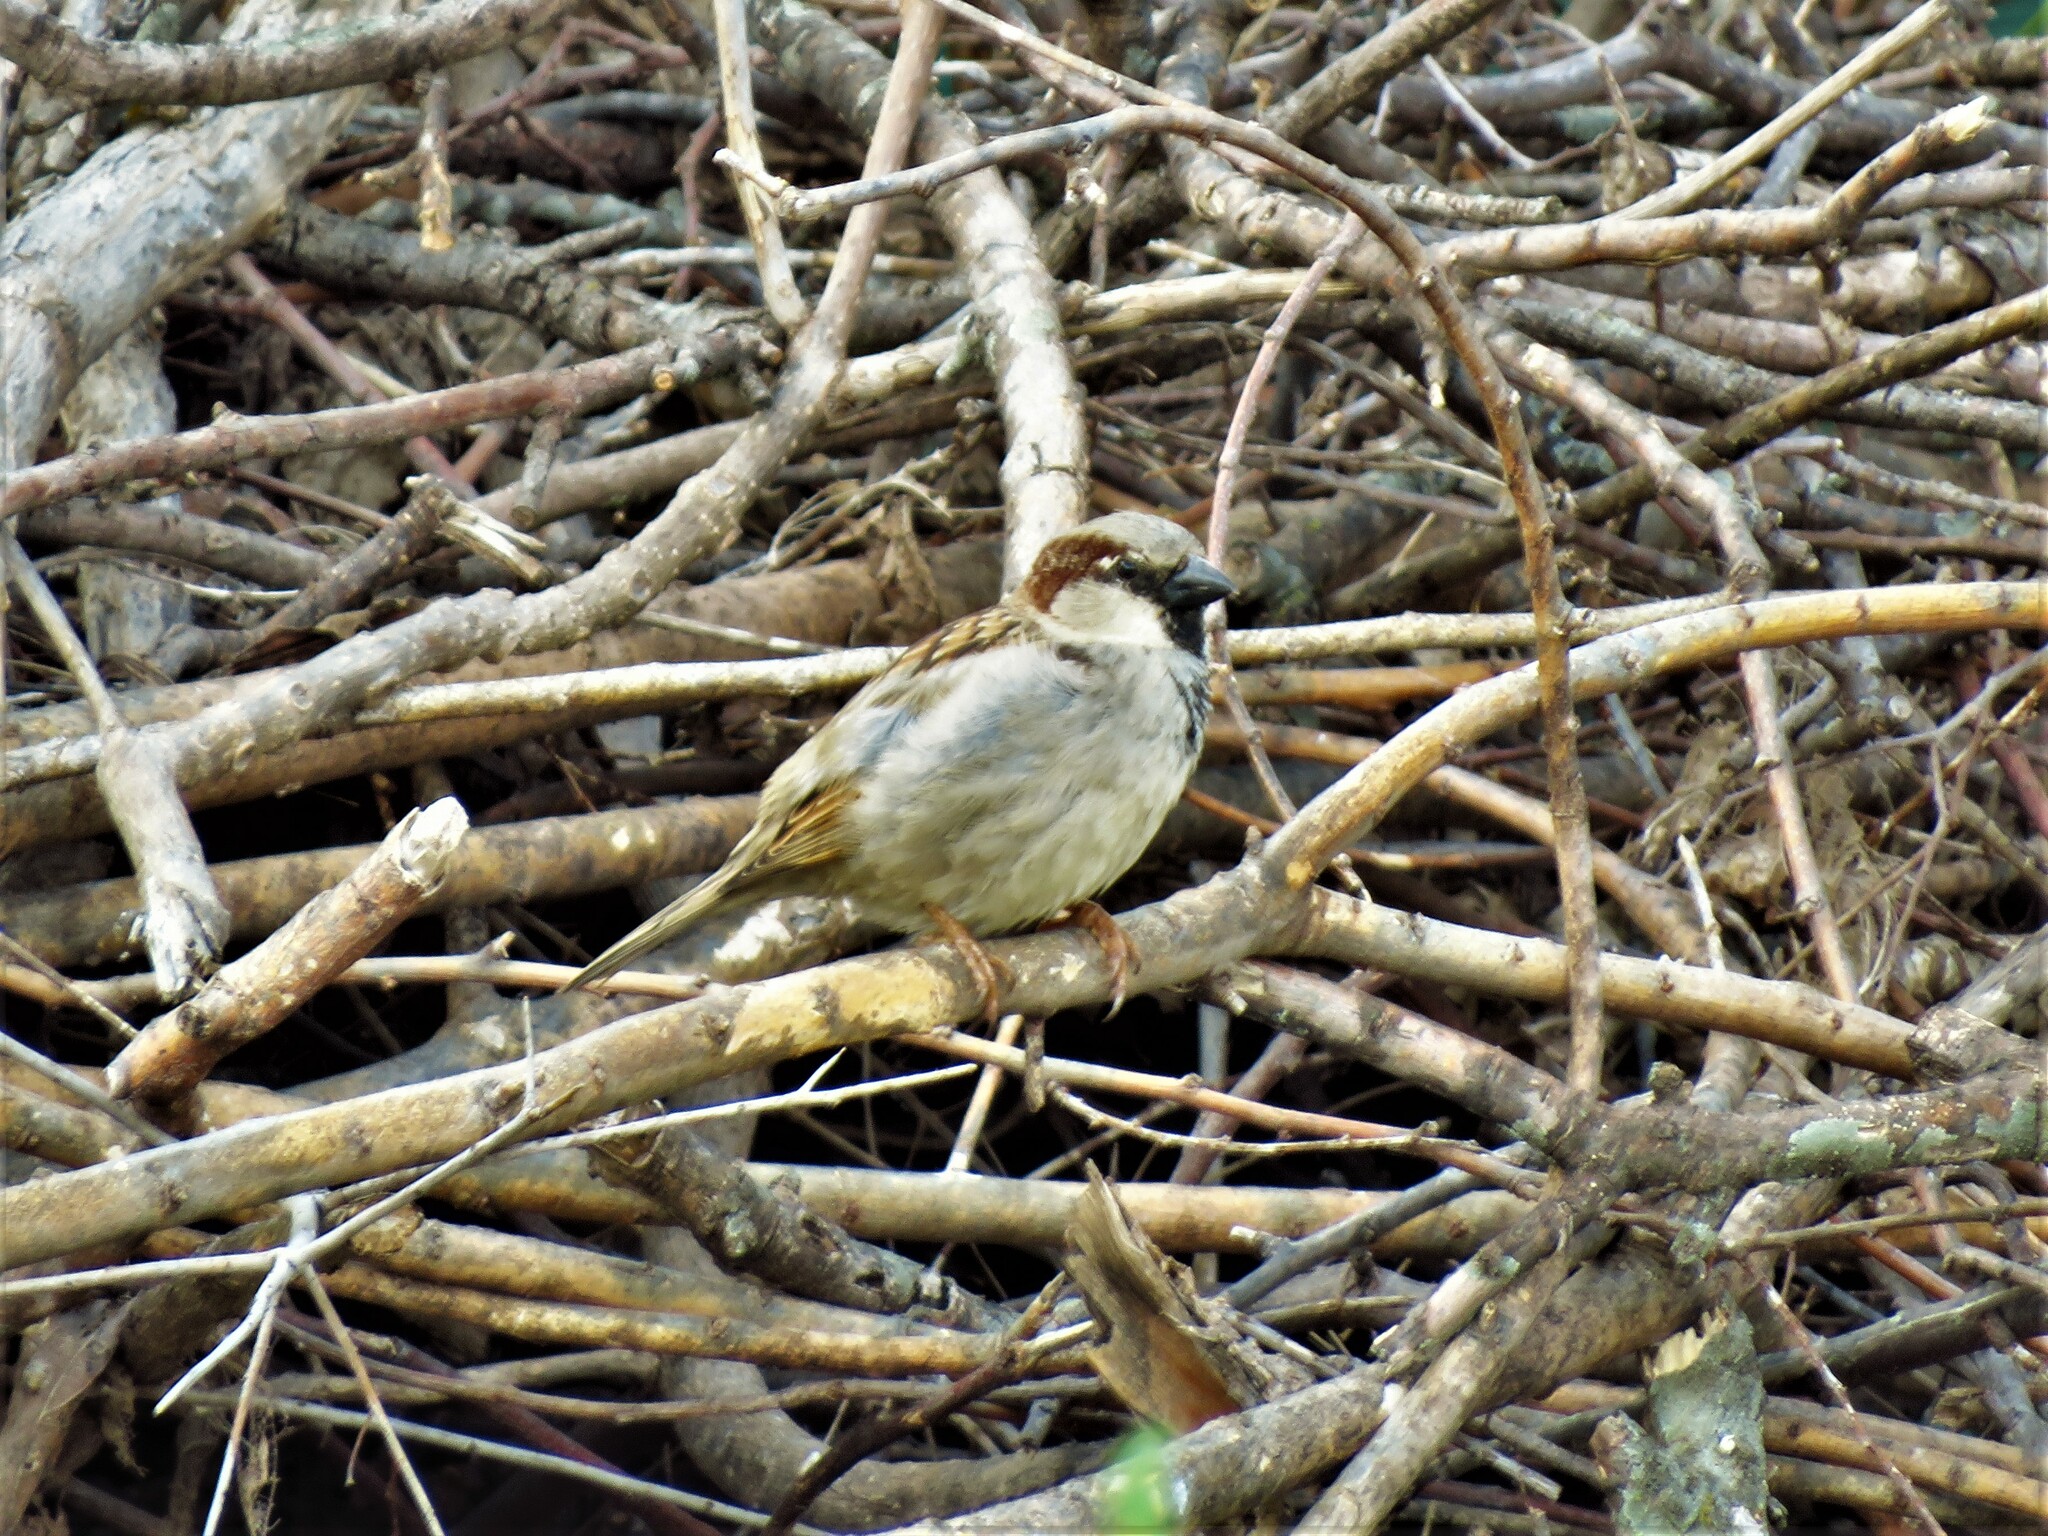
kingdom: Animalia
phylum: Chordata
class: Aves
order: Passeriformes
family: Passeridae
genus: Passer
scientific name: Passer domesticus
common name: House sparrow
